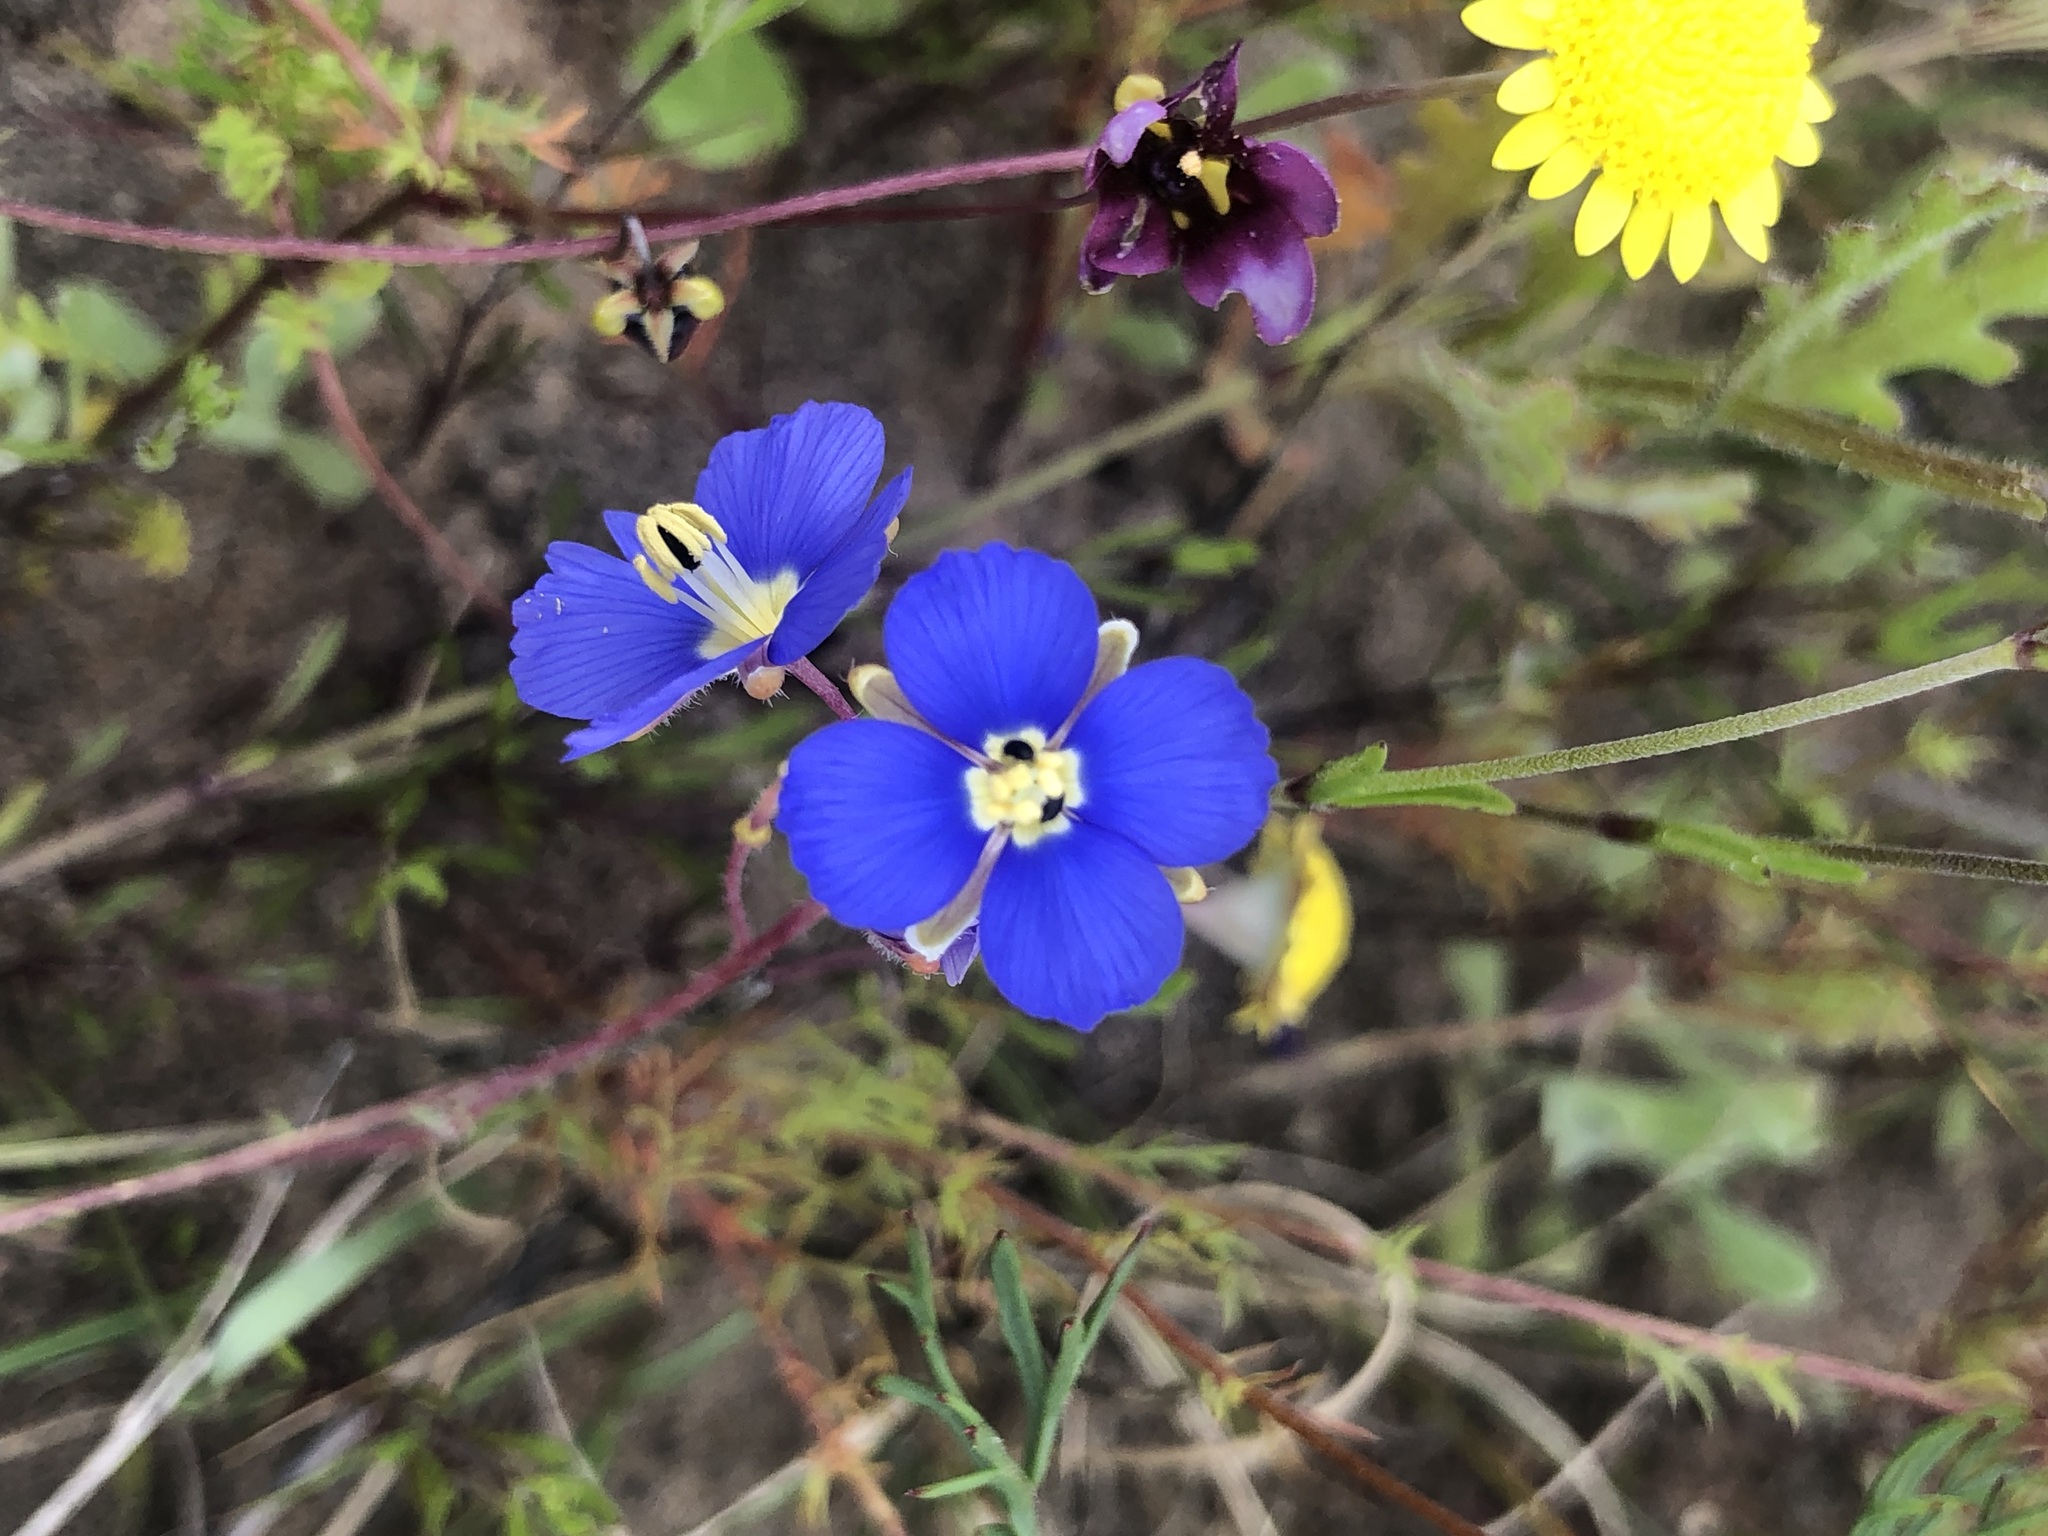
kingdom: Plantae
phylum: Tracheophyta
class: Magnoliopsida
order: Brassicales
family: Brassicaceae
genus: Heliophila
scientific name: Heliophila africana
